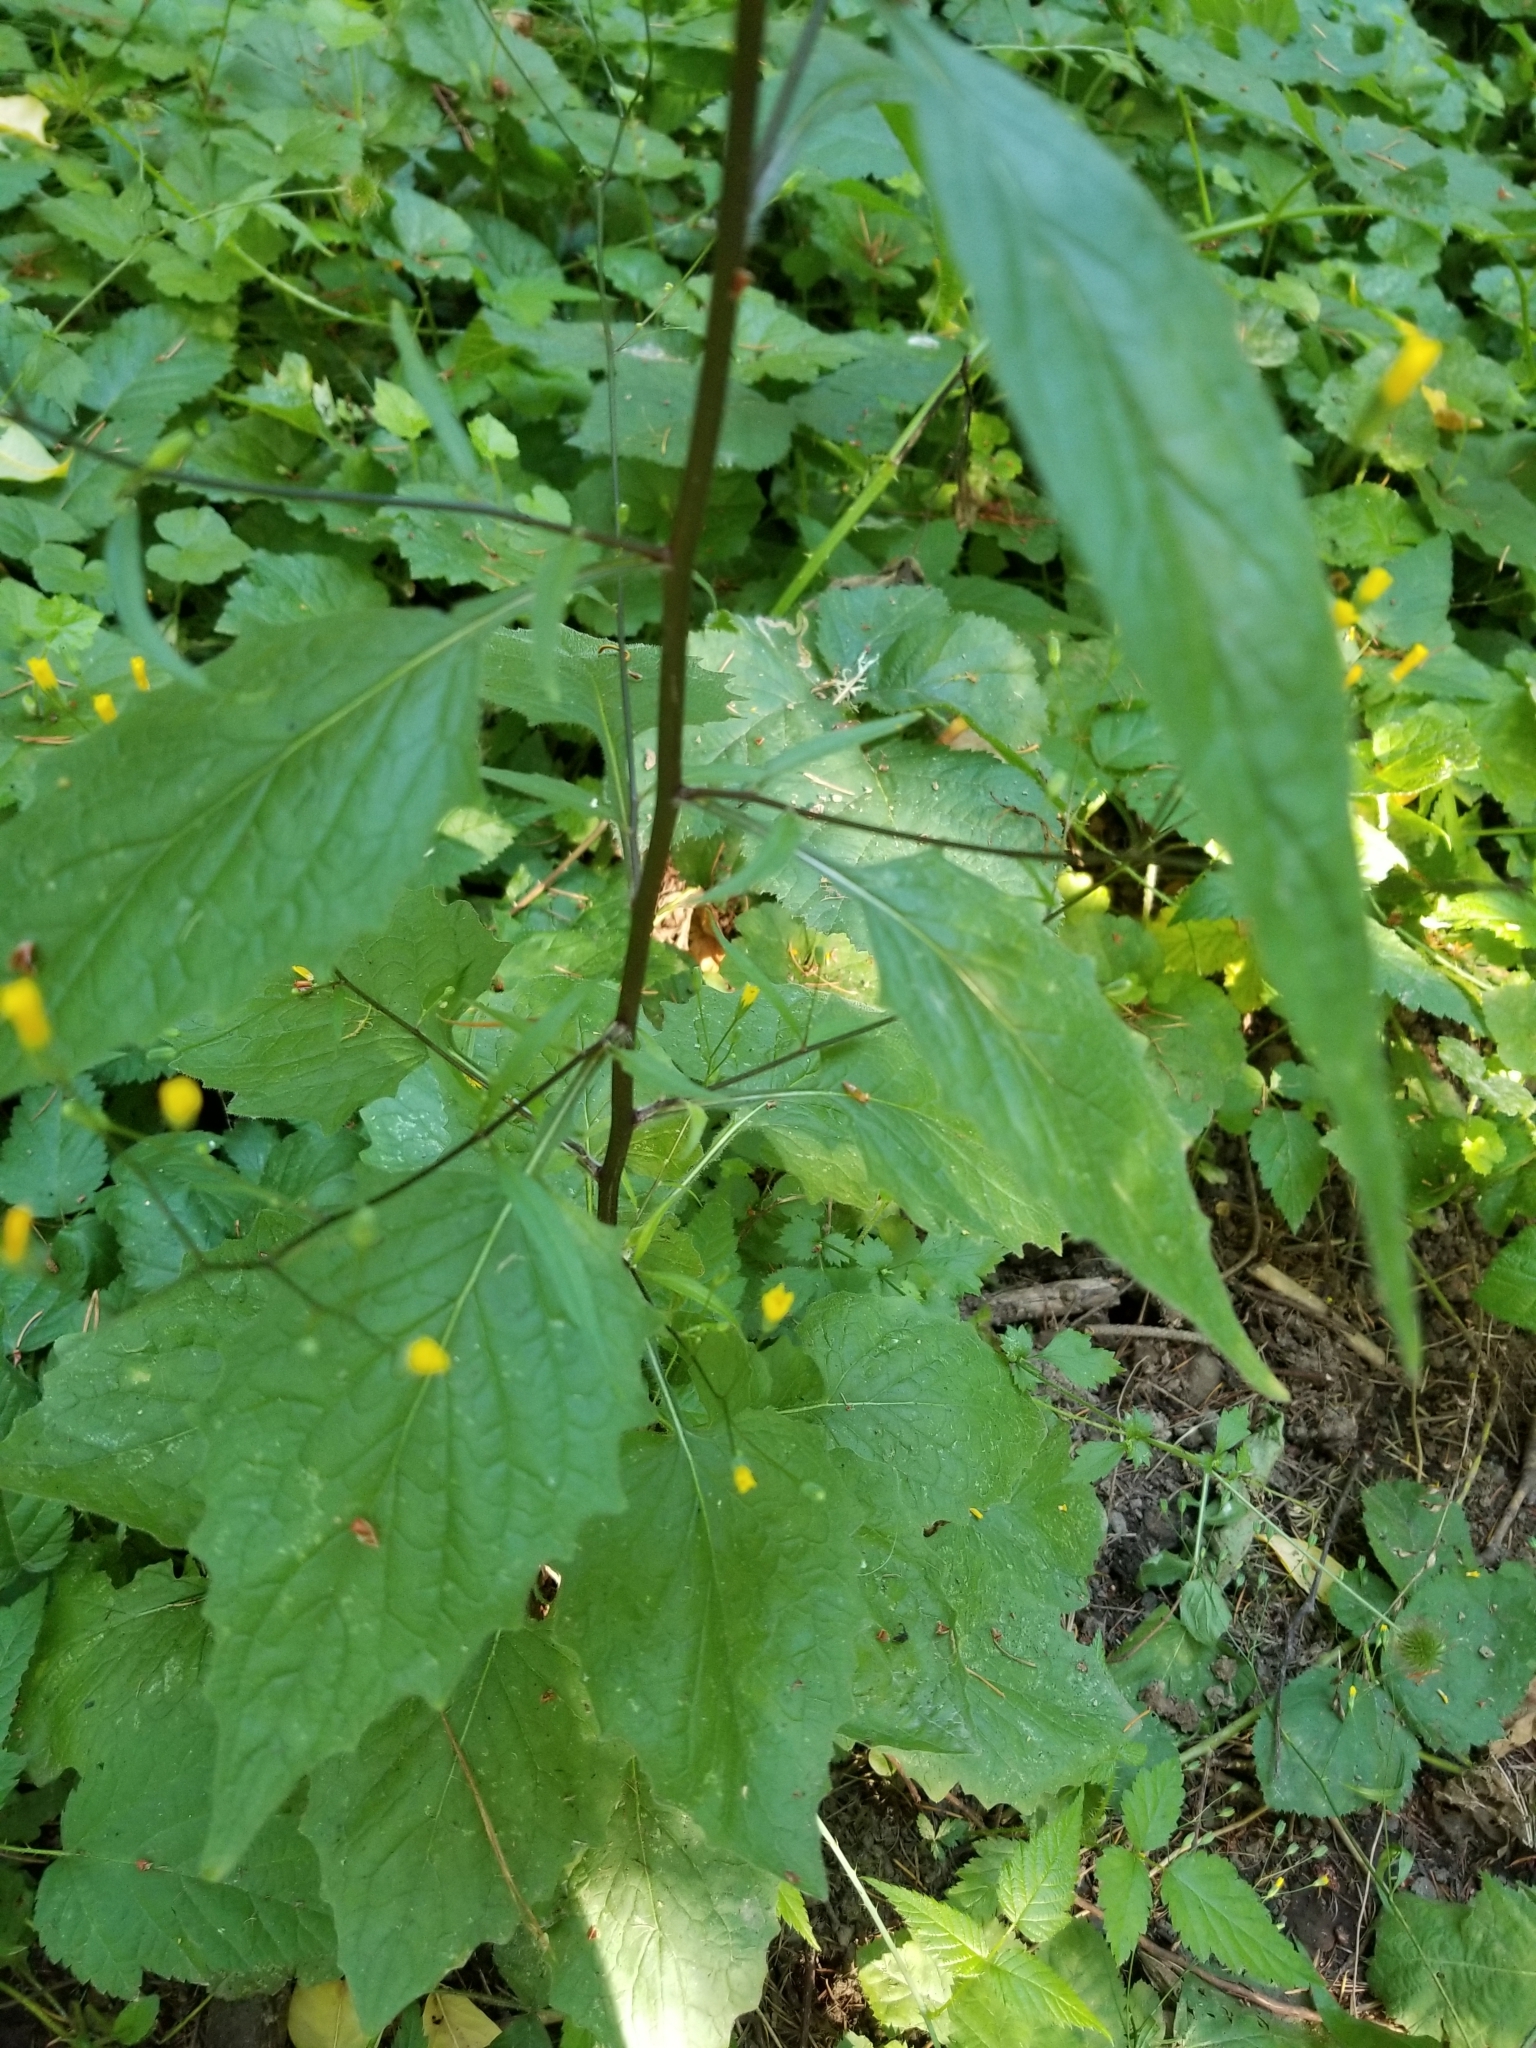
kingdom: Plantae
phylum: Tracheophyta
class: Magnoliopsida
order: Asterales
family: Asteraceae
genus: Lapsana
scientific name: Lapsana communis
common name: Nipplewort
